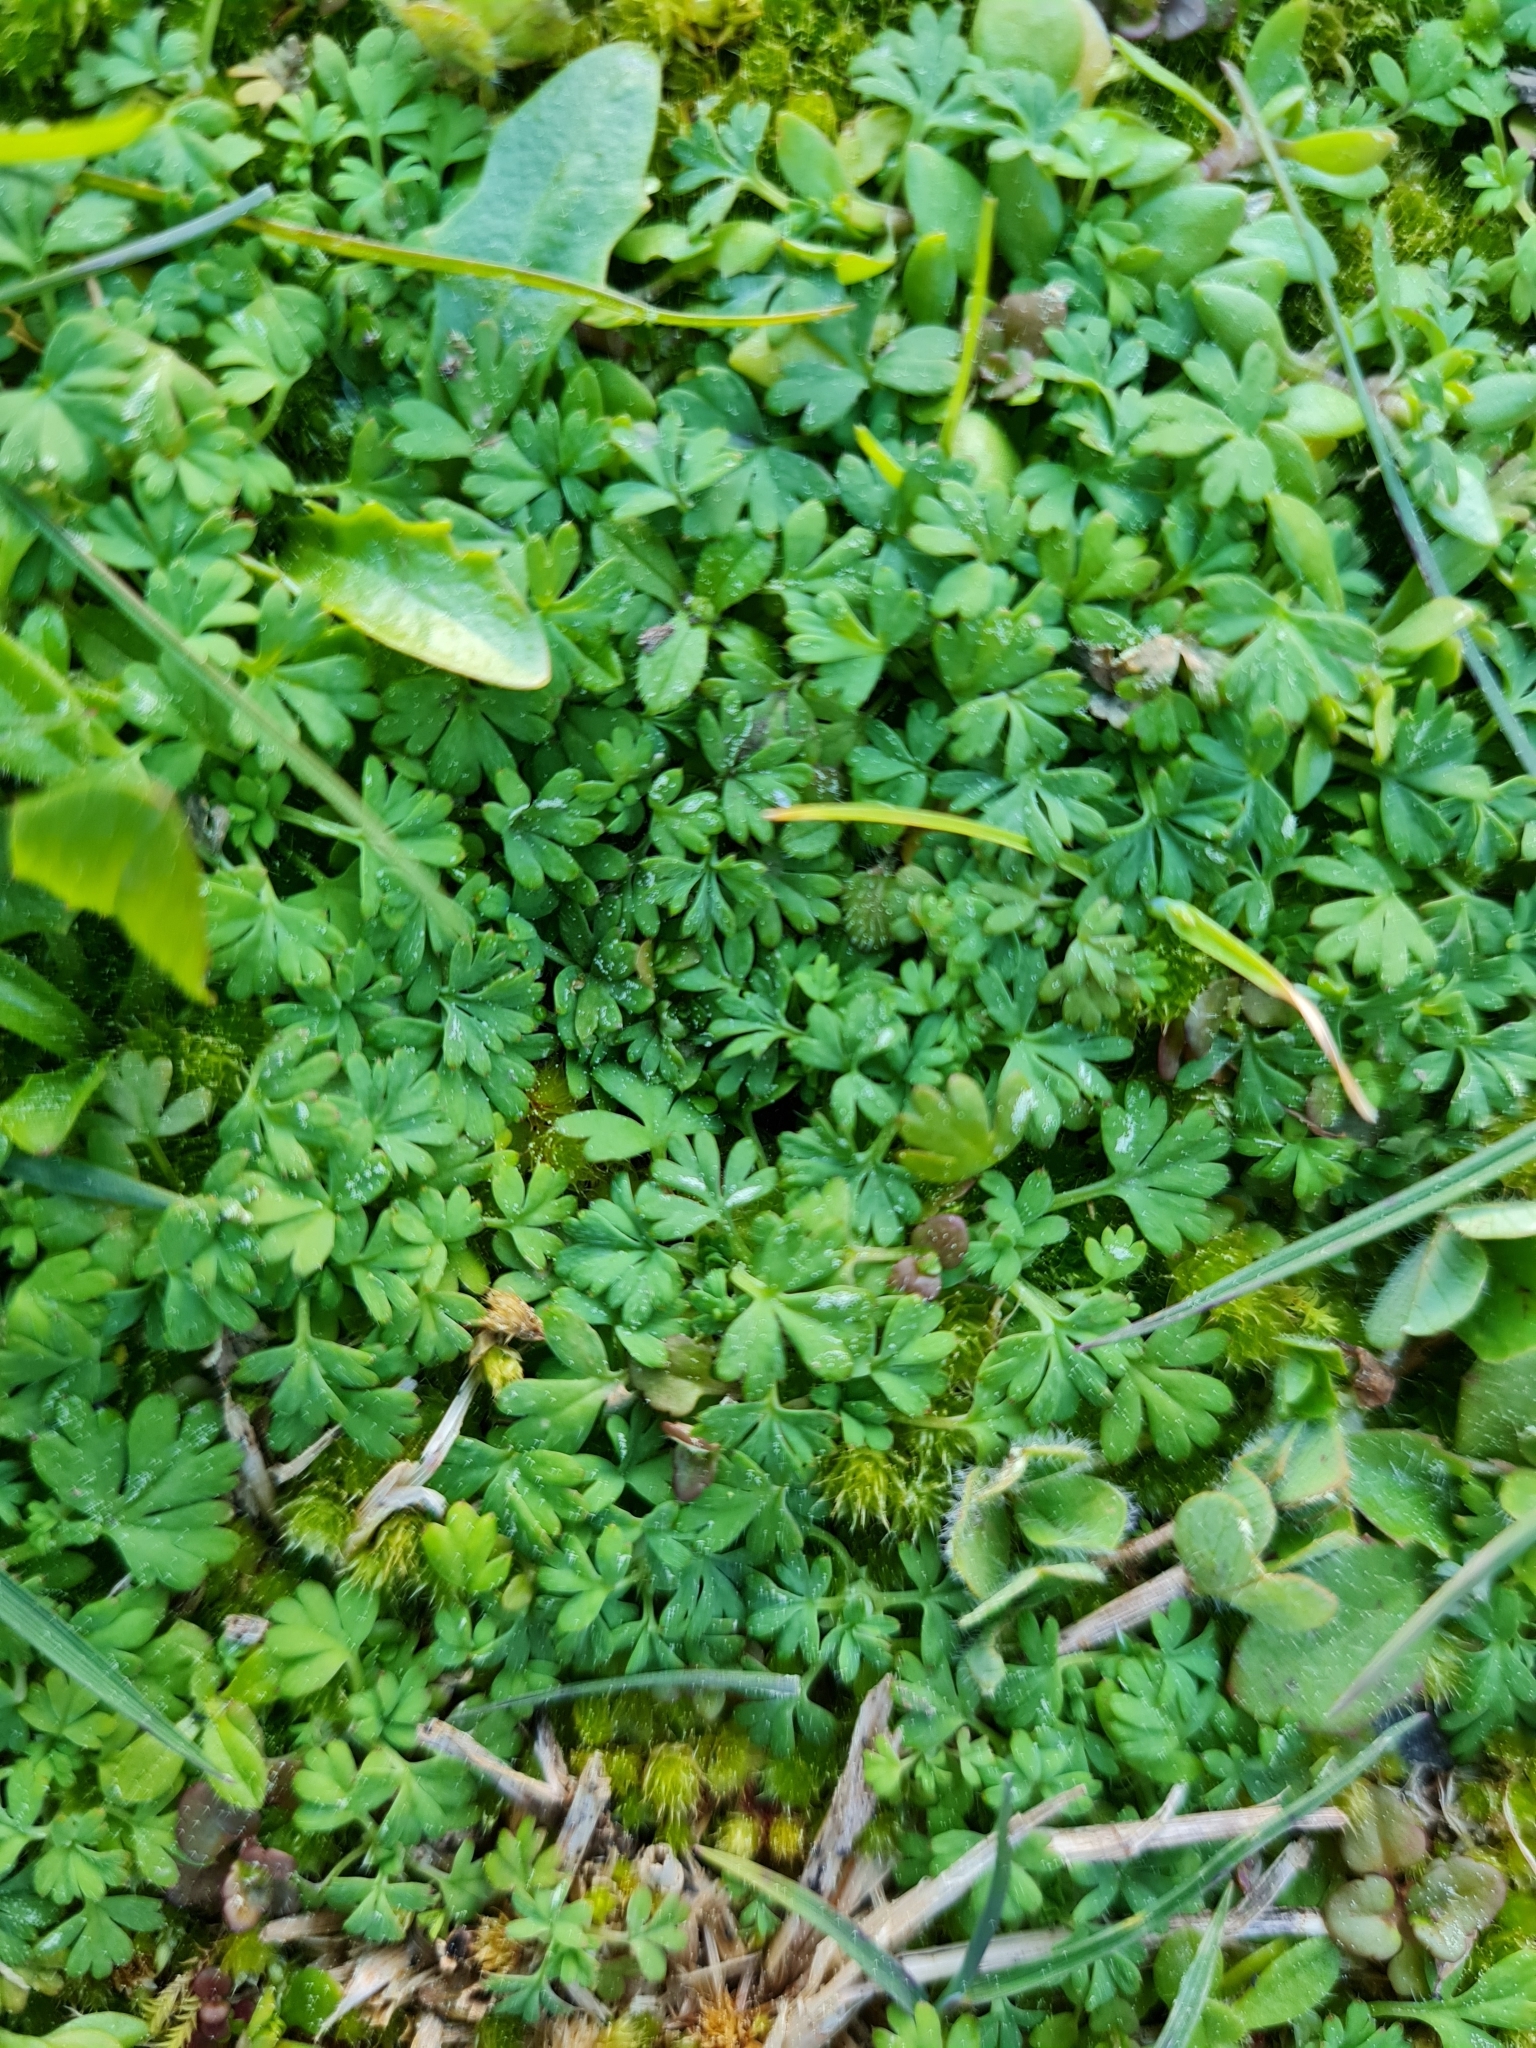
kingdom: Plantae
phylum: Tracheophyta
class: Magnoliopsida
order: Rosales
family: Rosaceae
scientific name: Rosaceae
